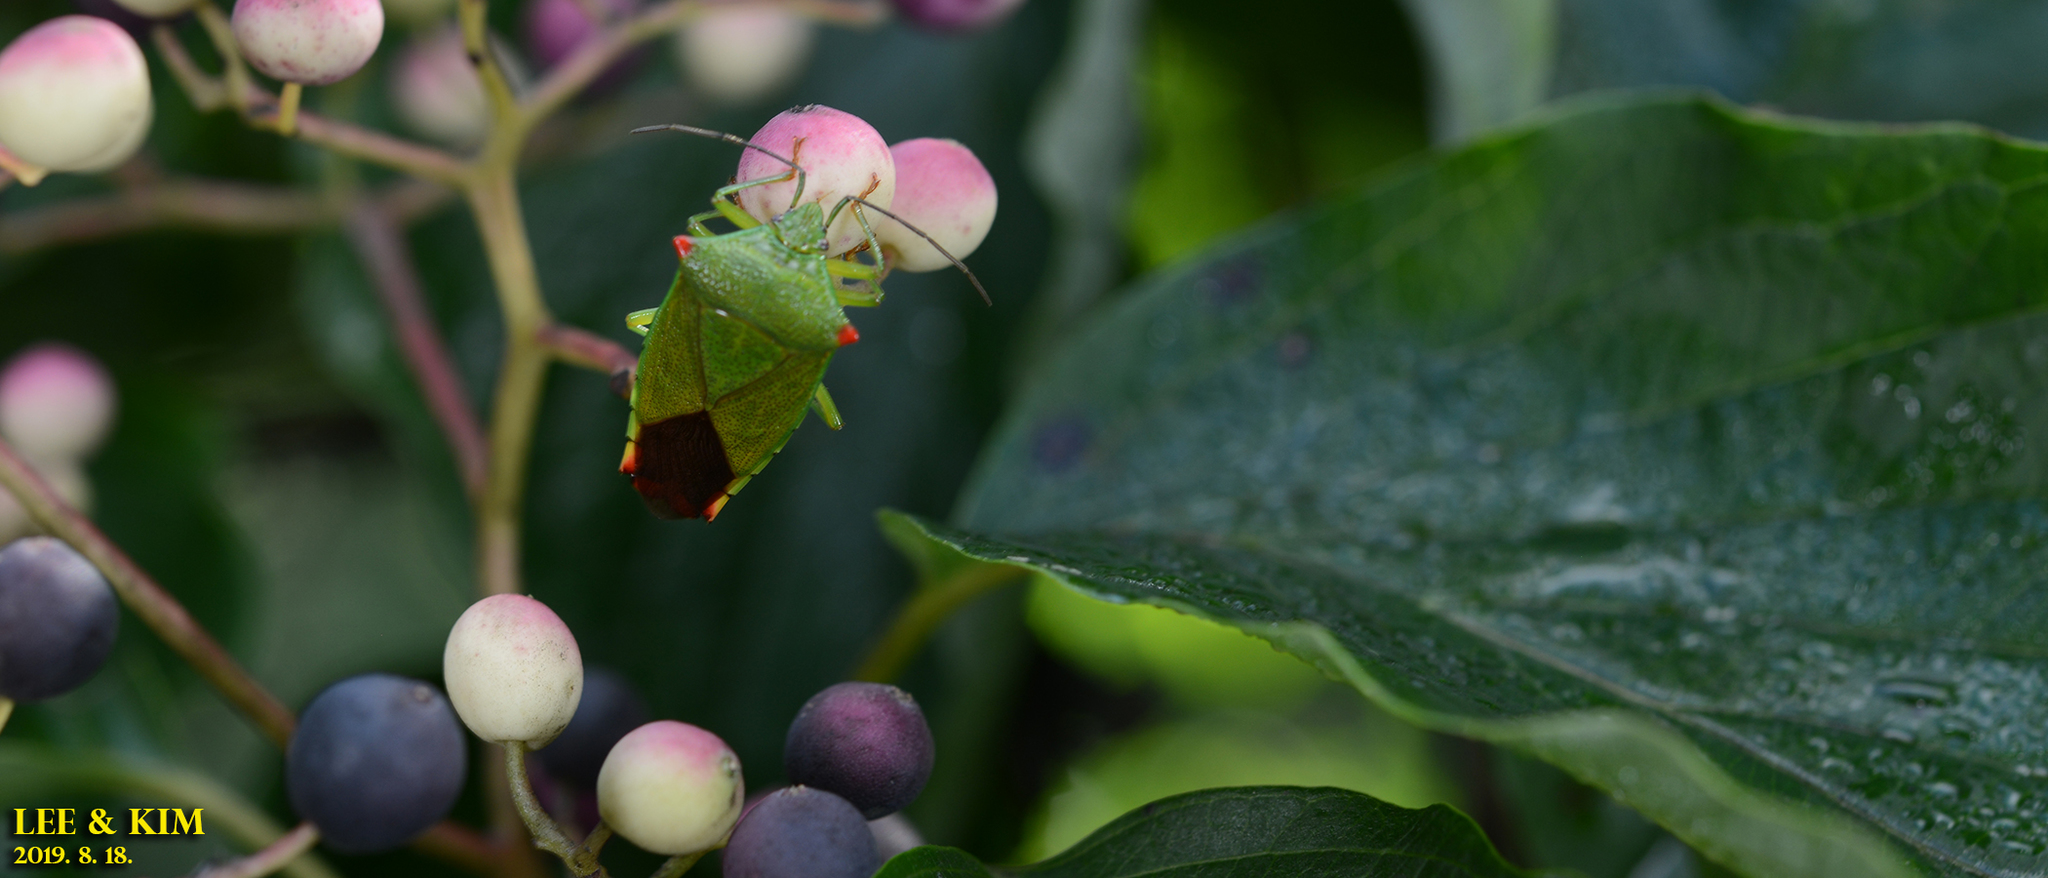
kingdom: Animalia
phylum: Arthropoda
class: Insecta
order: Hemiptera
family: Acanthosomatidae
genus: Acanthosoma
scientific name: Acanthosoma labiduroides
